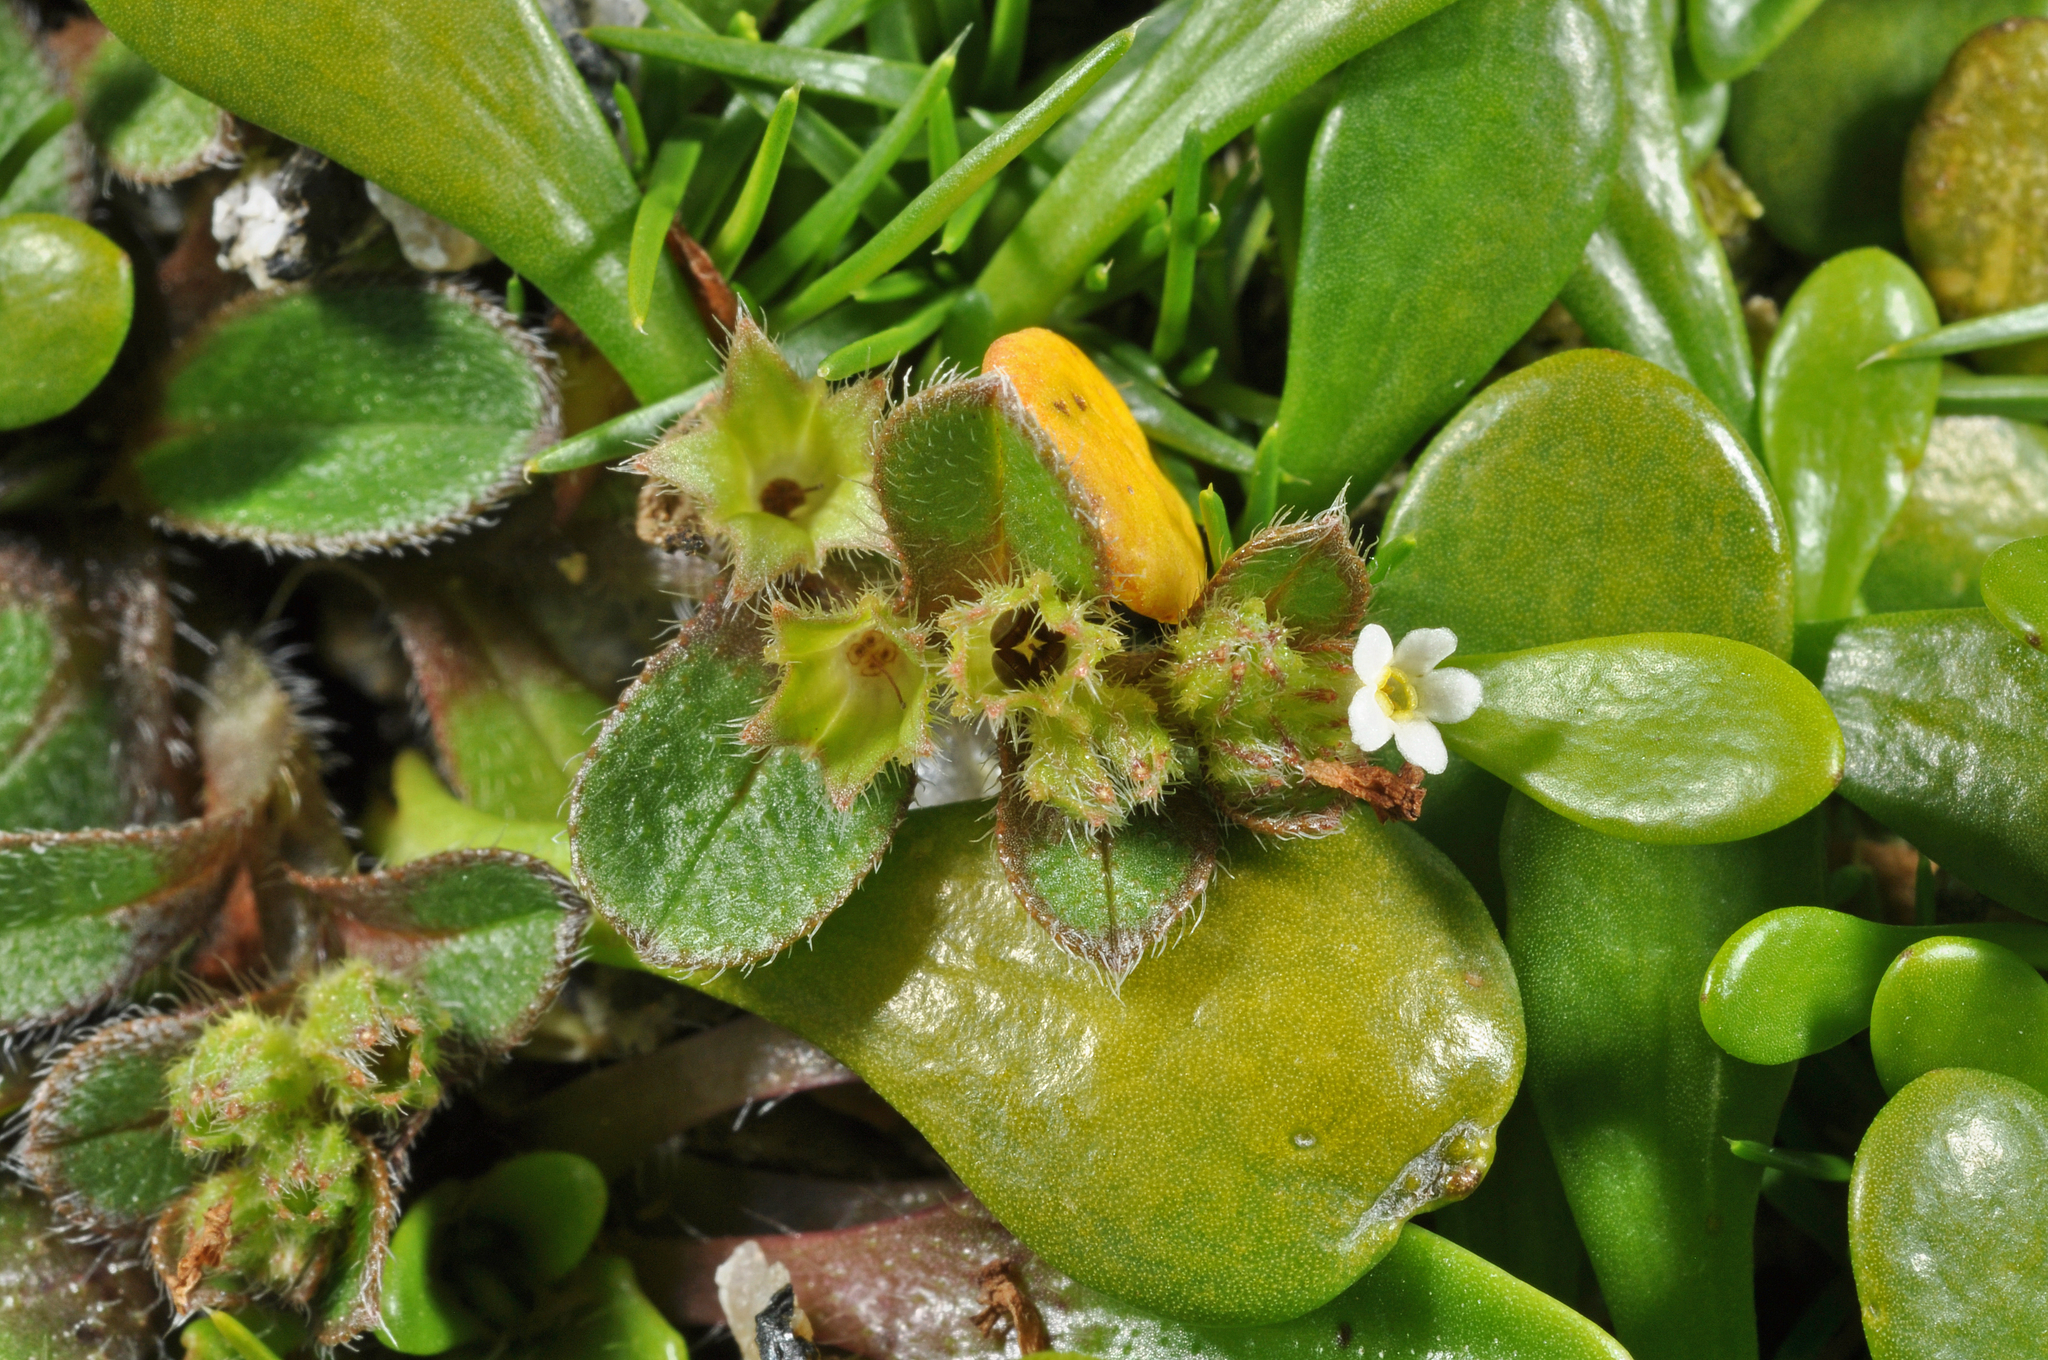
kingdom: Plantae
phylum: Tracheophyta
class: Magnoliopsida
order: Boraginales
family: Boraginaceae
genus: Myosotis
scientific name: Myosotis antarctica
